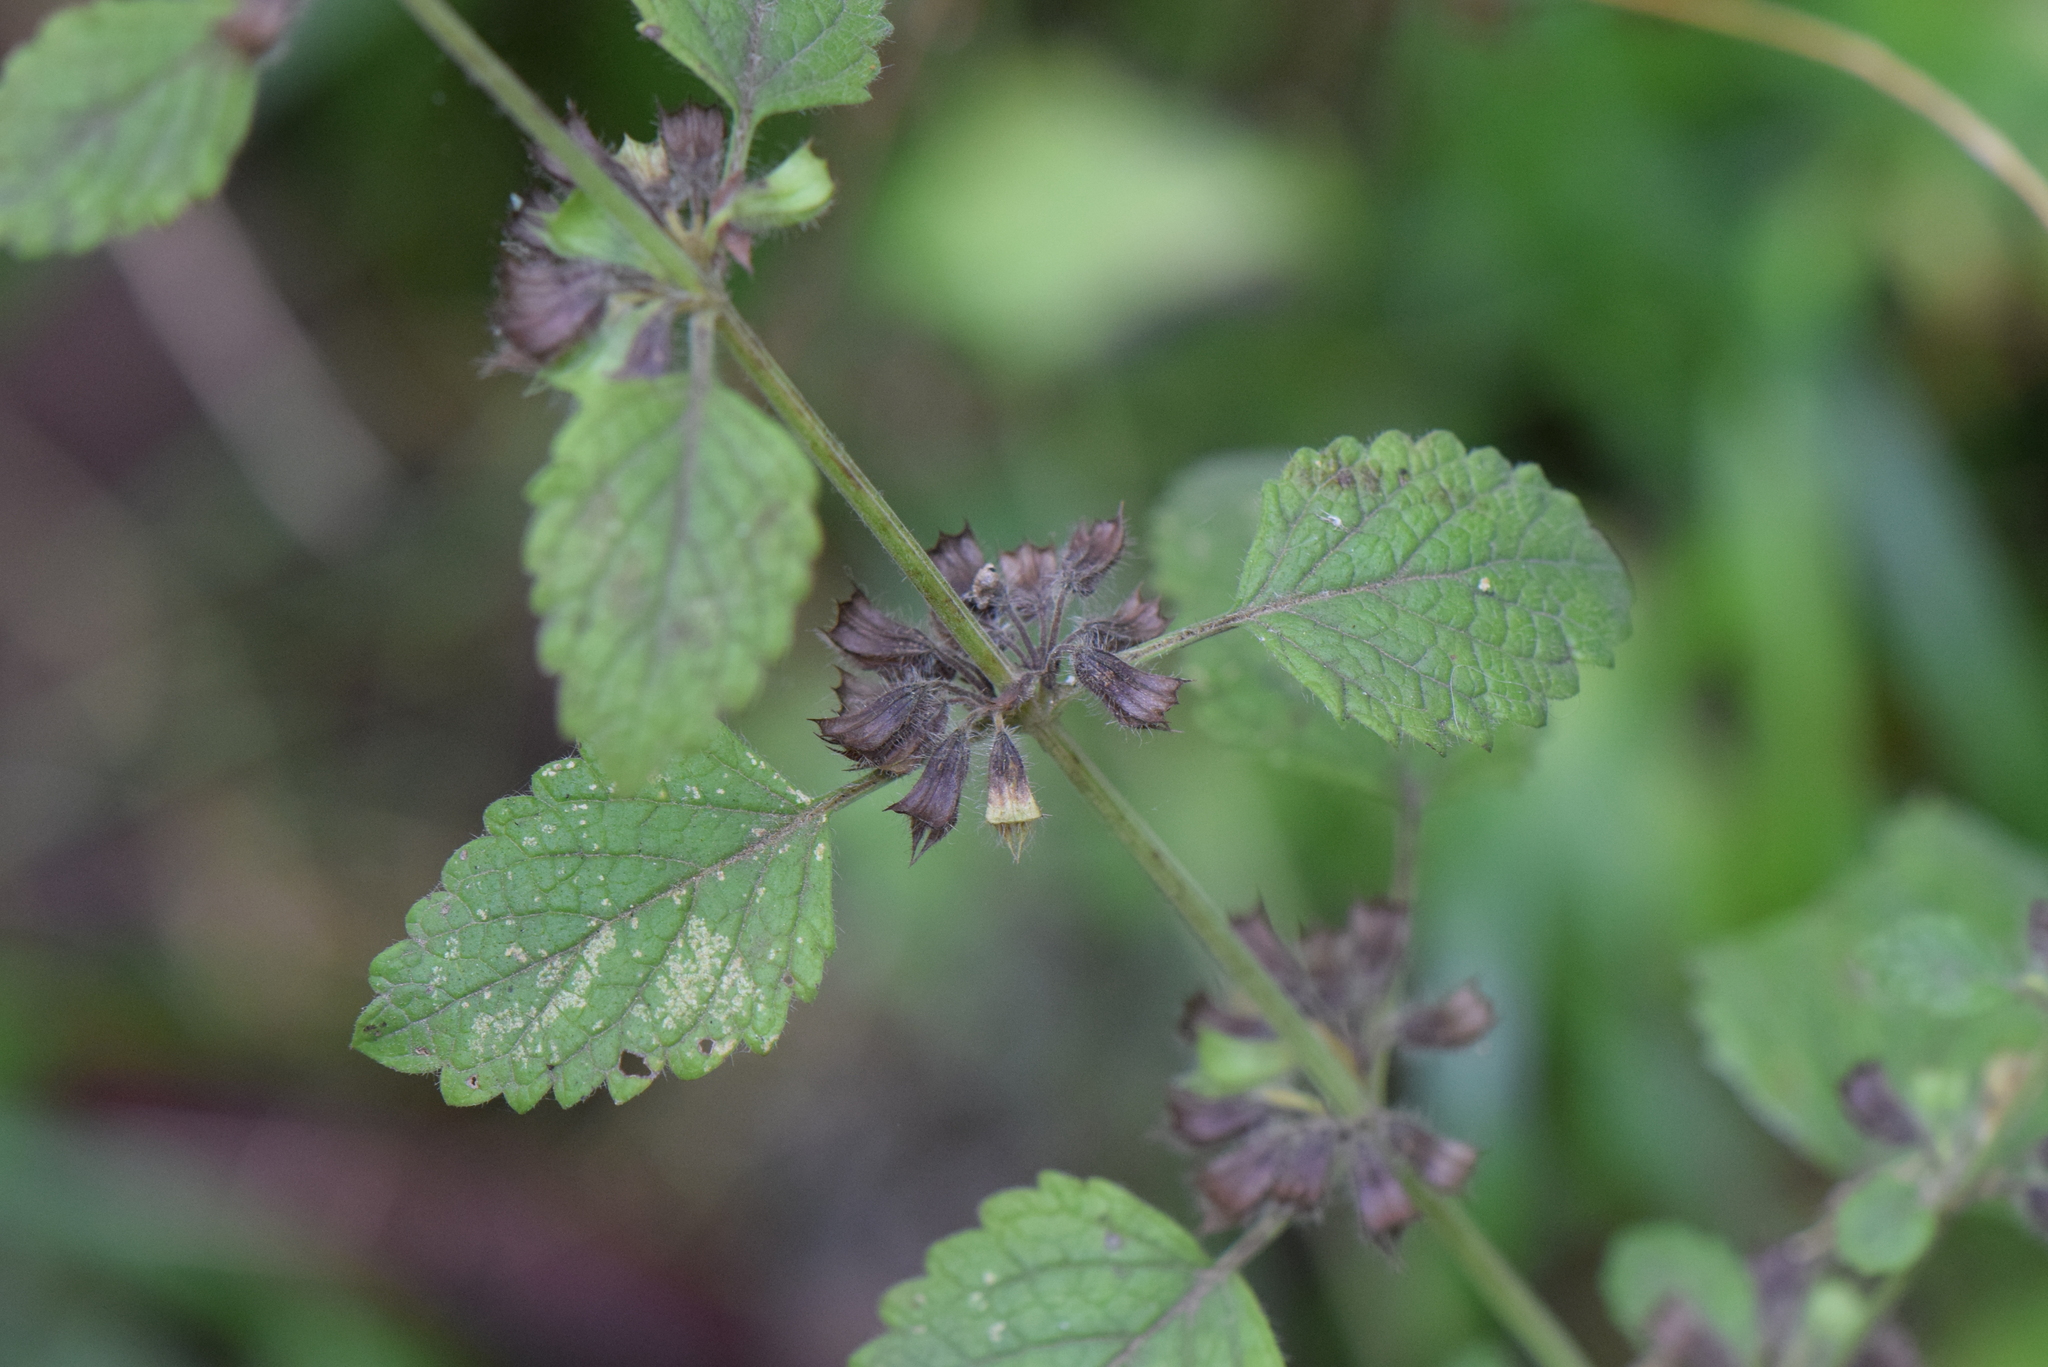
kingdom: Plantae
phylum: Tracheophyta
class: Magnoliopsida
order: Lamiales
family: Lamiaceae
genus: Ballota
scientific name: Ballota nigra
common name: Black horehound
